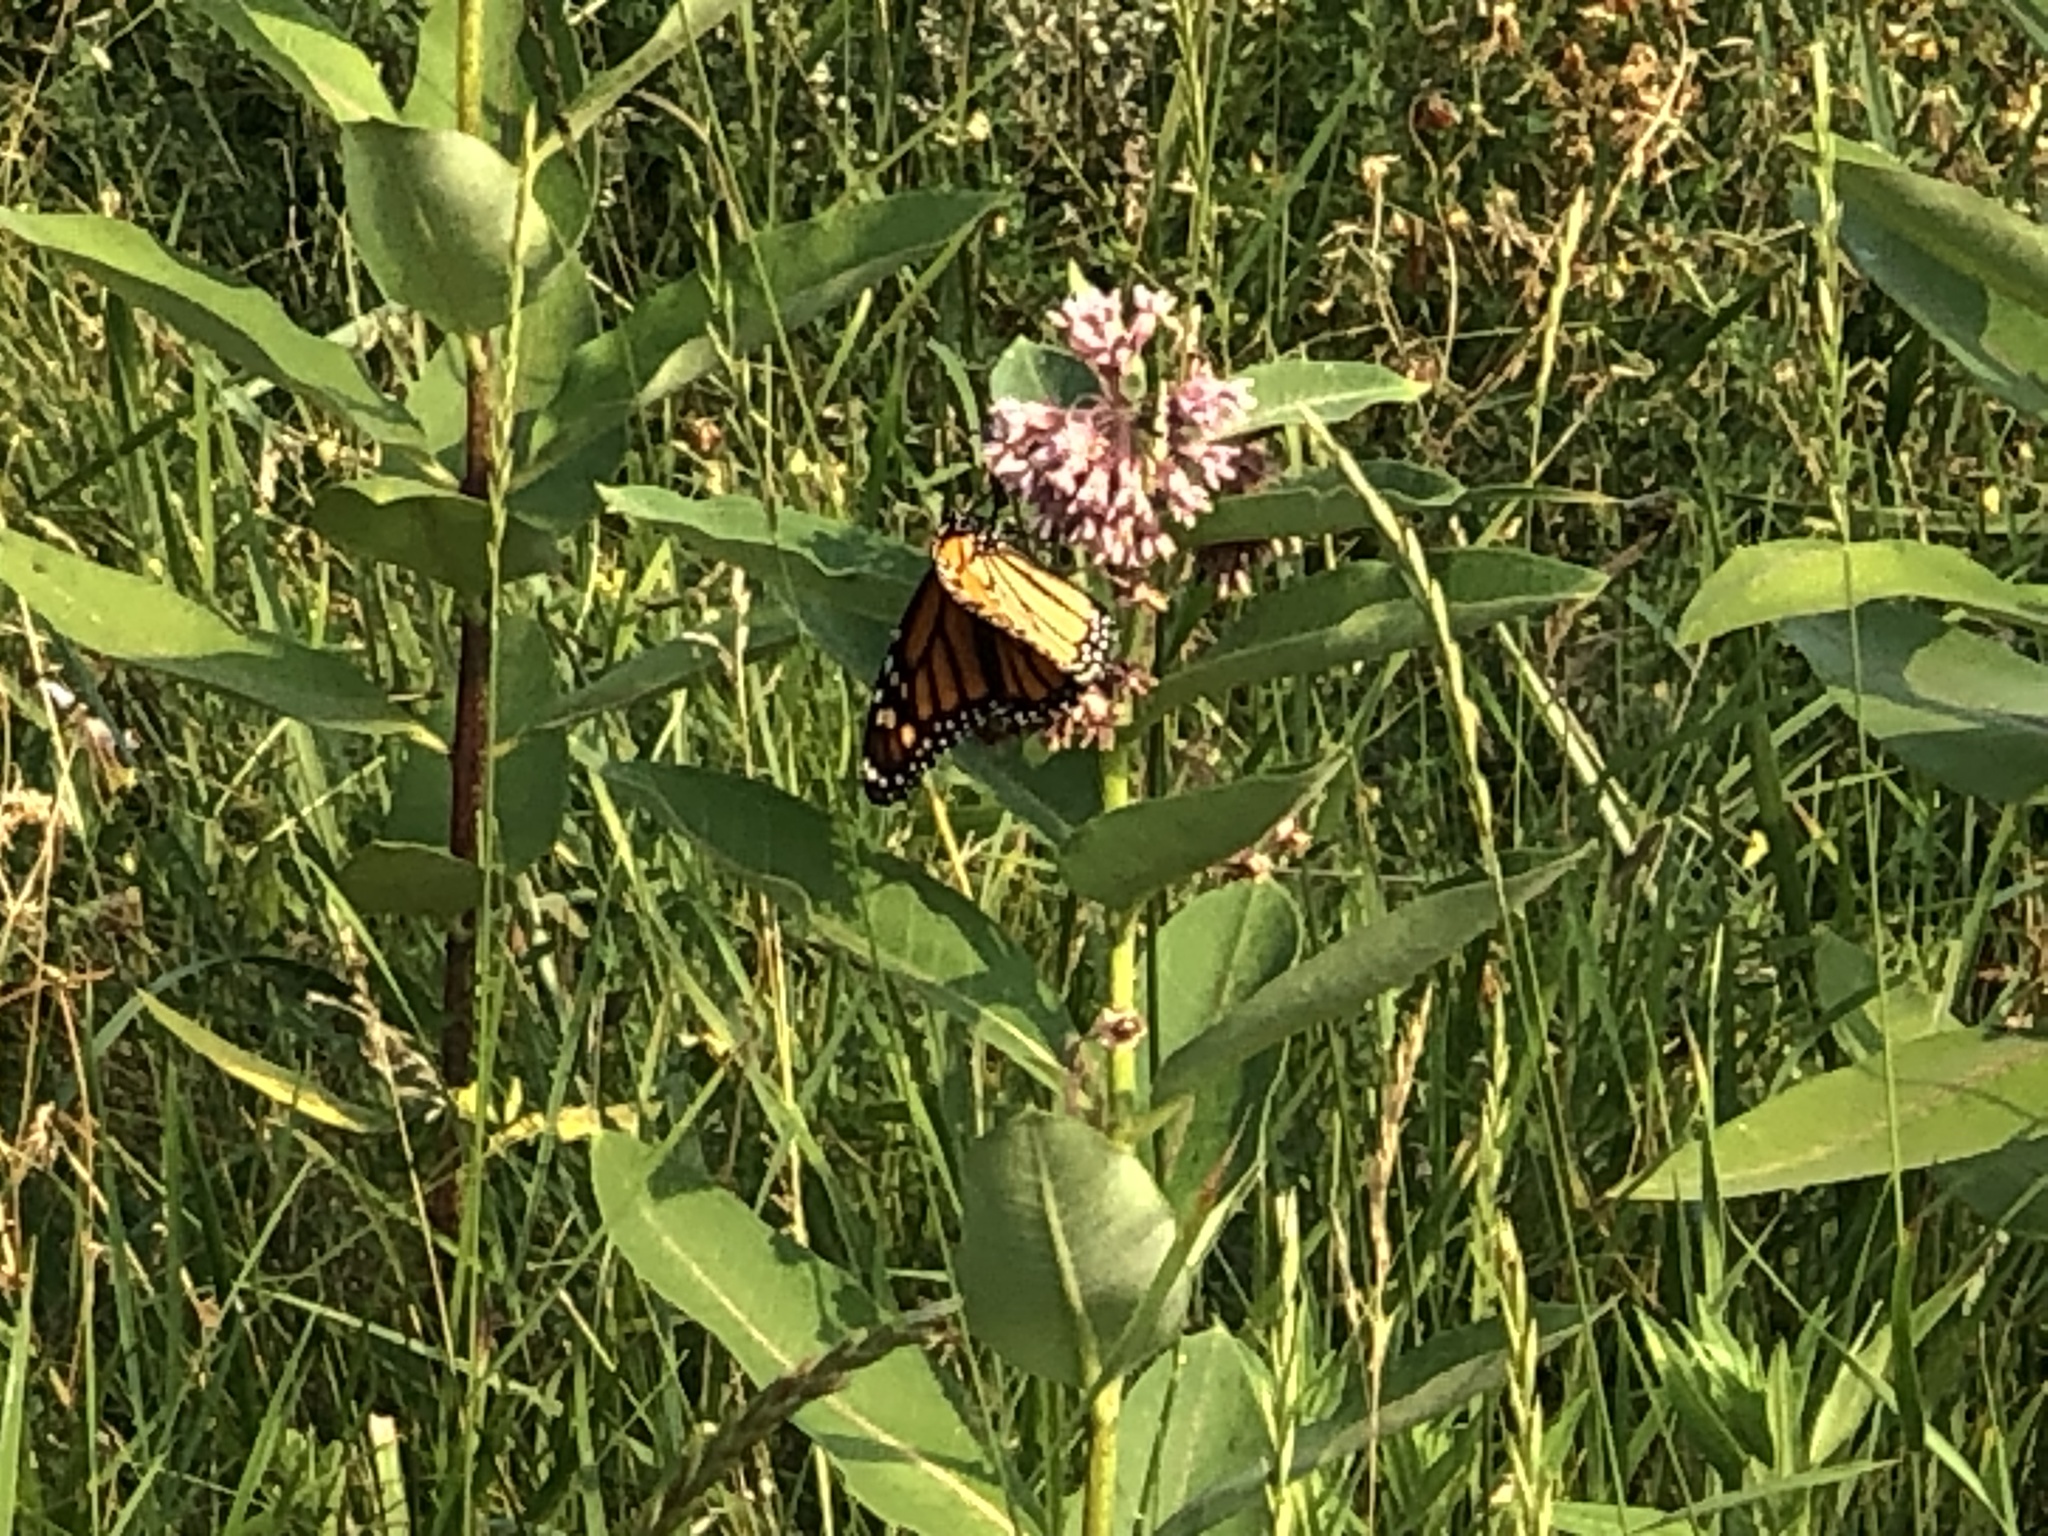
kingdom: Animalia
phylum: Arthropoda
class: Insecta
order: Lepidoptera
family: Nymphalidae
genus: Danaus
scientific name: Danaus plexippus
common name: Monarch
